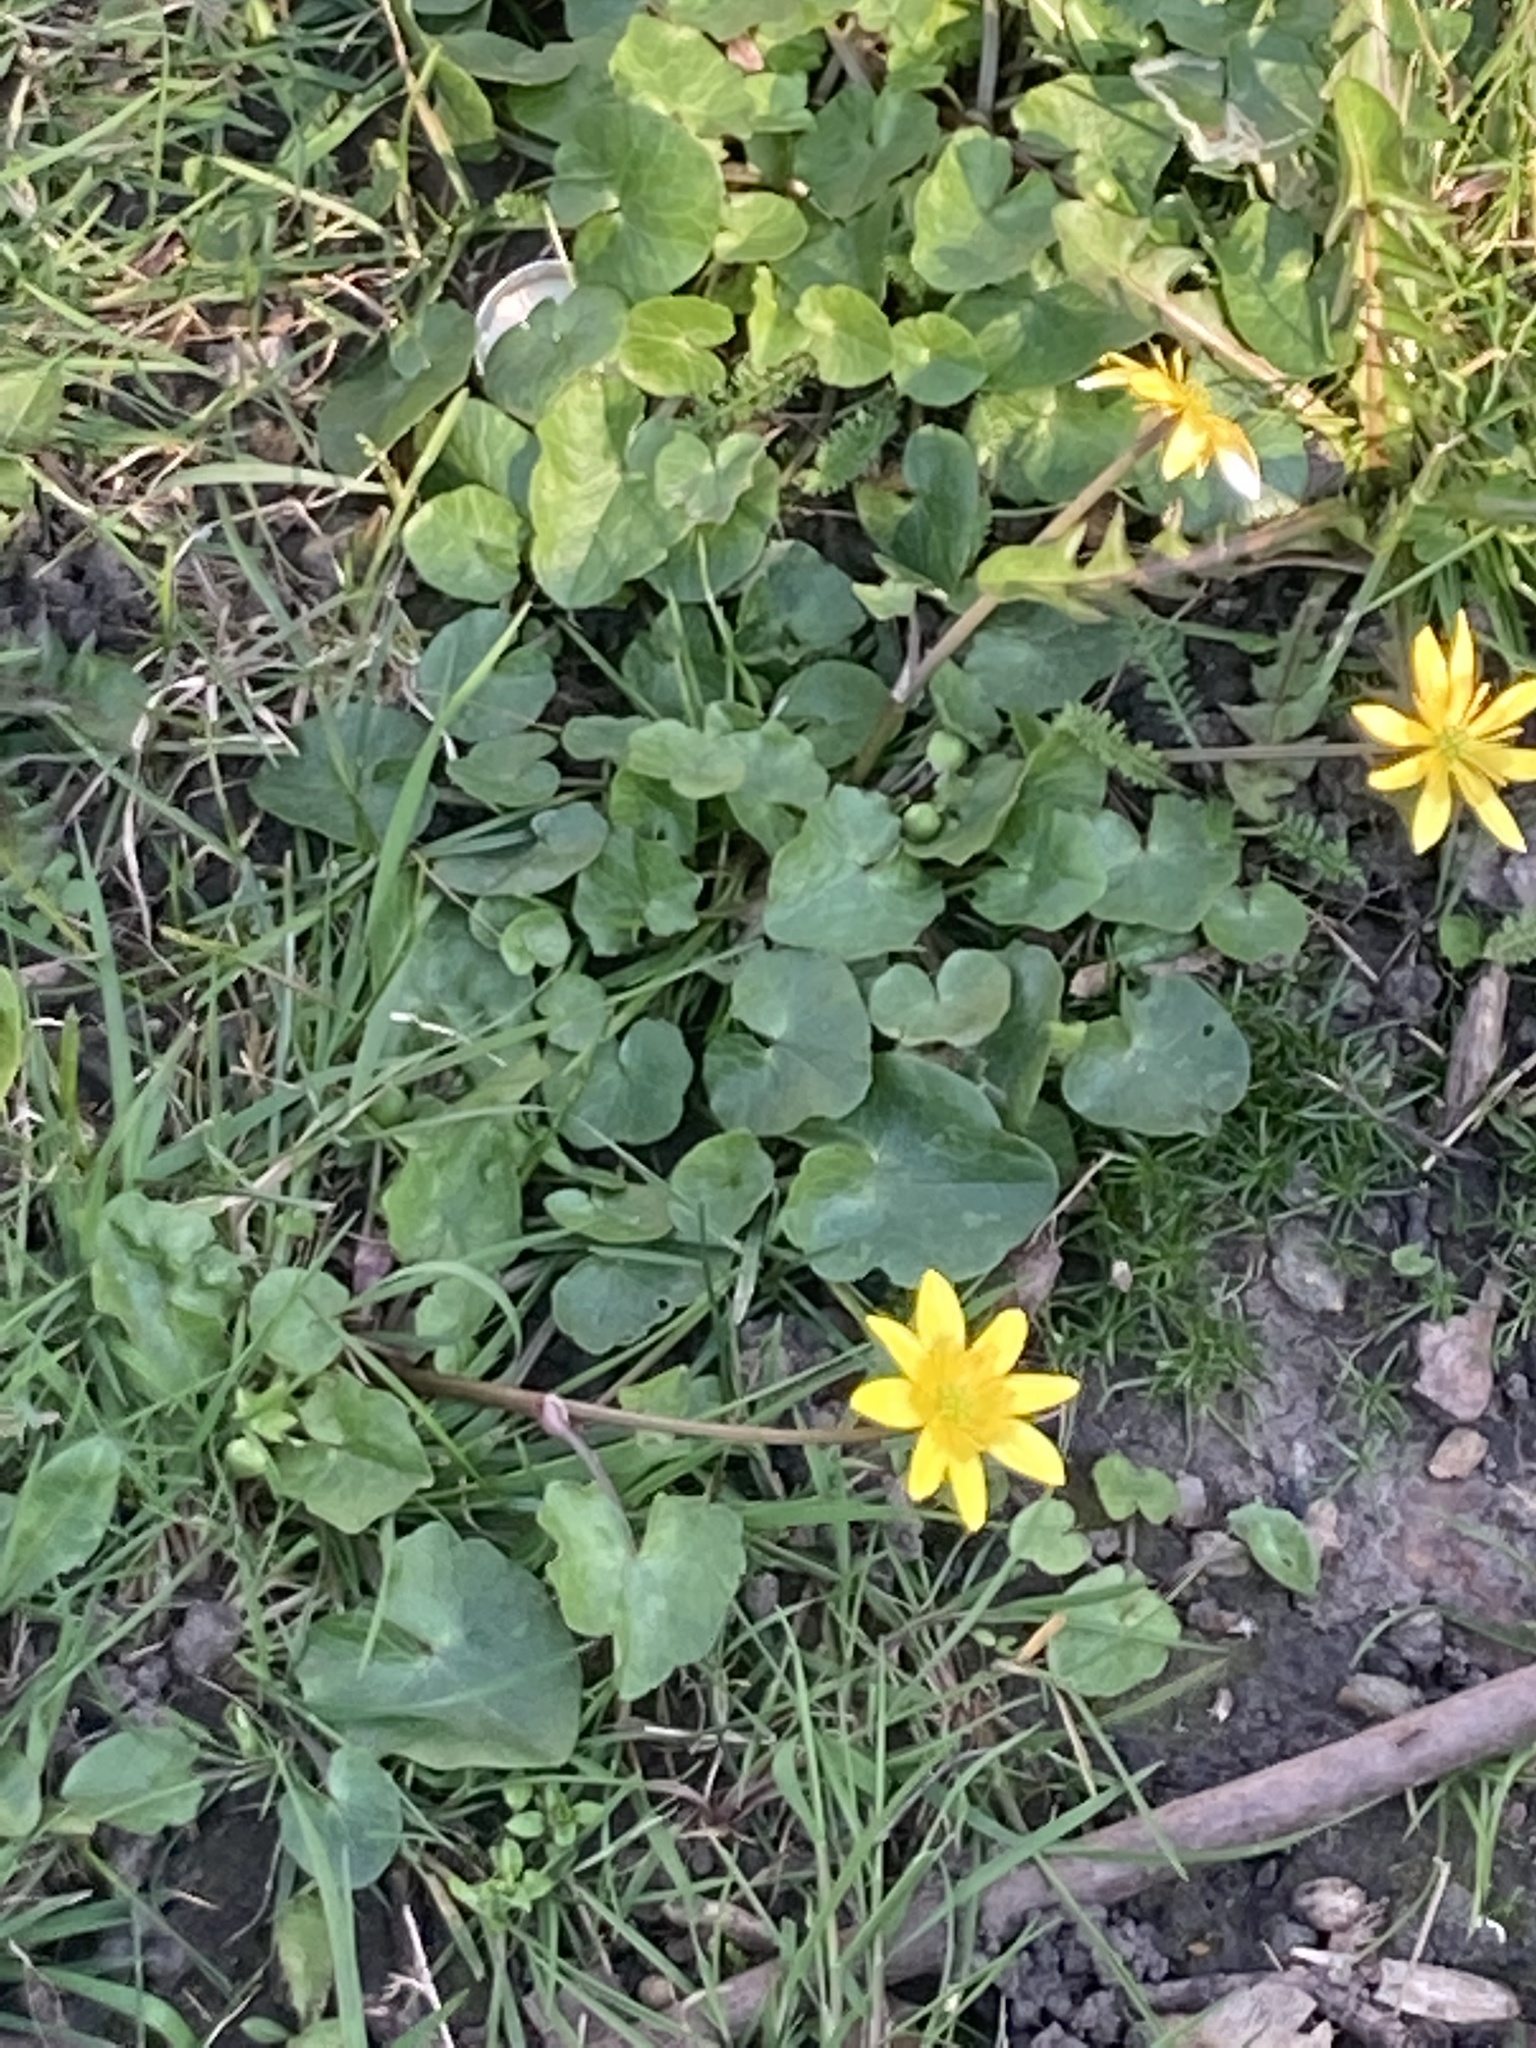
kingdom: Plantae
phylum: Tracheophyta
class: Magnoliopsida
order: Ranunculales
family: Ranunculaceae
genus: Ficaria
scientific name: Ficaria verna
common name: Lesser celandine
